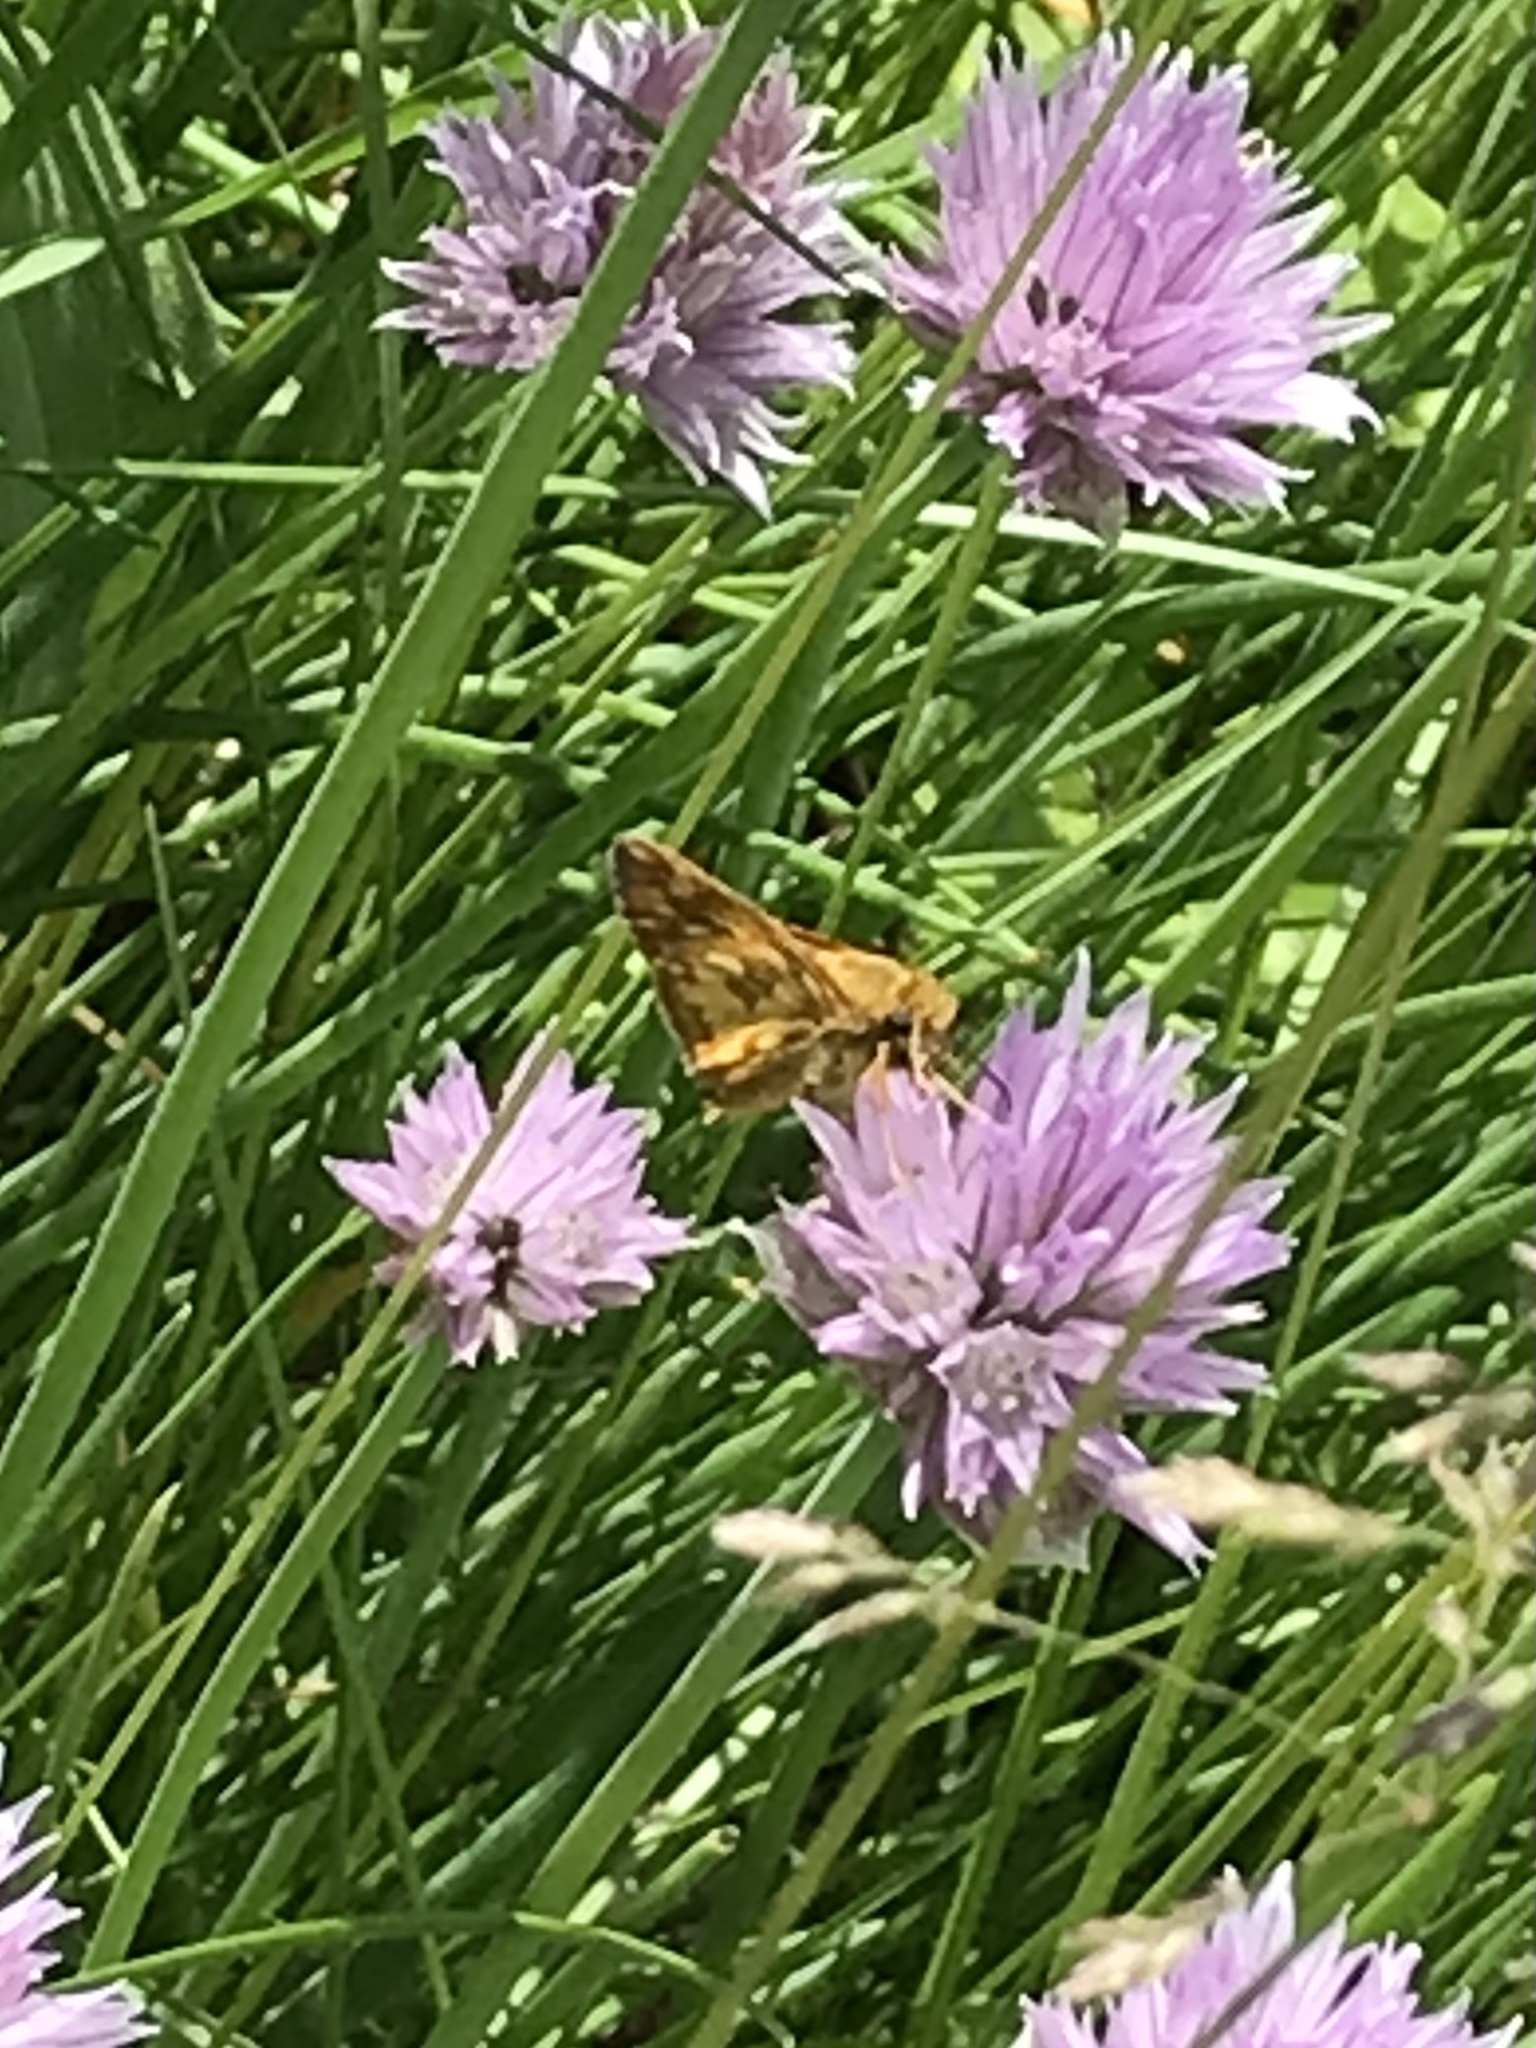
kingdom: Animalia
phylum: Arthropoda
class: Insecta
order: Lepidoptera
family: Hesperiidae
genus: Polites
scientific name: Polites coras
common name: Peck's skipper
